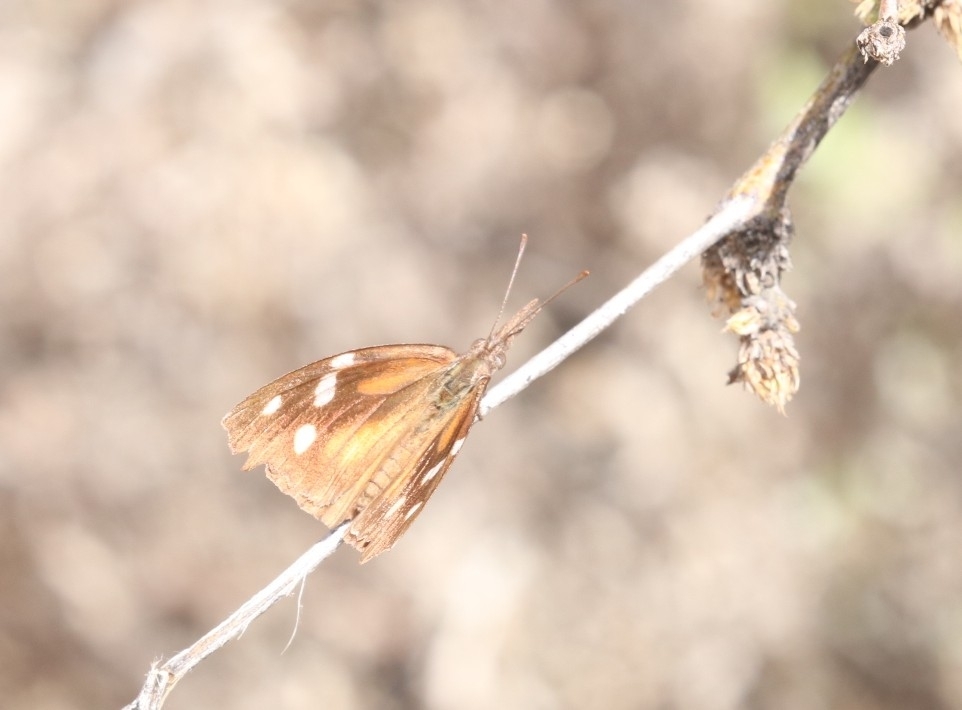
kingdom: Animalia
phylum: Arthropoda
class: Insecta
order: Lepidoptera
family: Nymphalidae
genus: Libytheana
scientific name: Libytheana carinenta
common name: American snout
